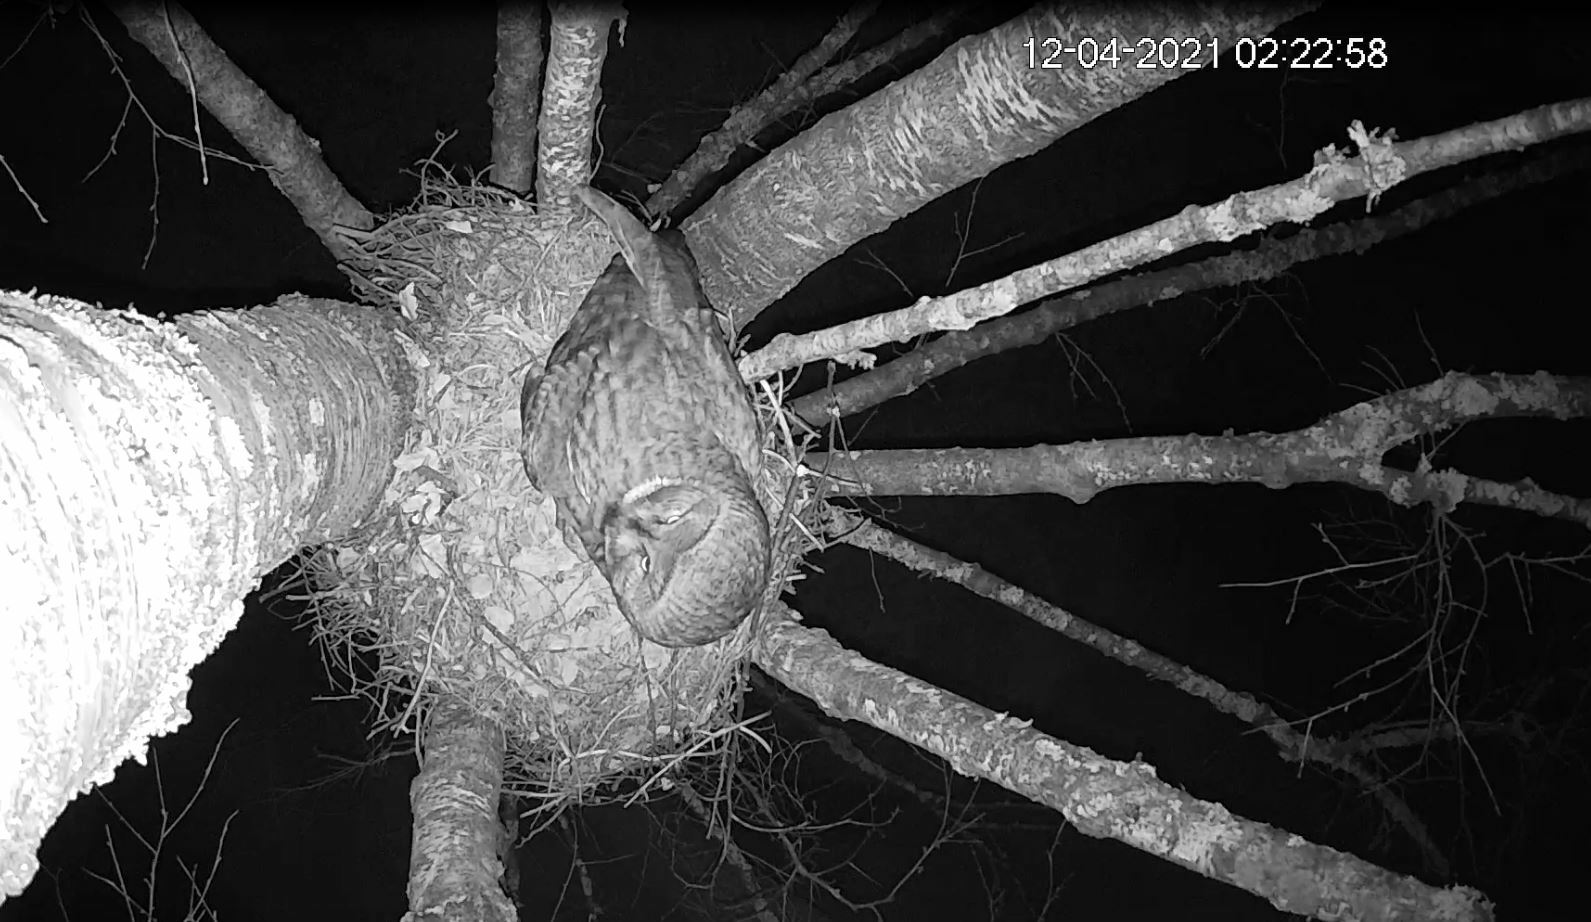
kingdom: Animalia
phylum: Chordata
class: Aves
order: Strigiformes
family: Strigidae
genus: Strix
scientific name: Strix nebulosa
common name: Great grey owl
